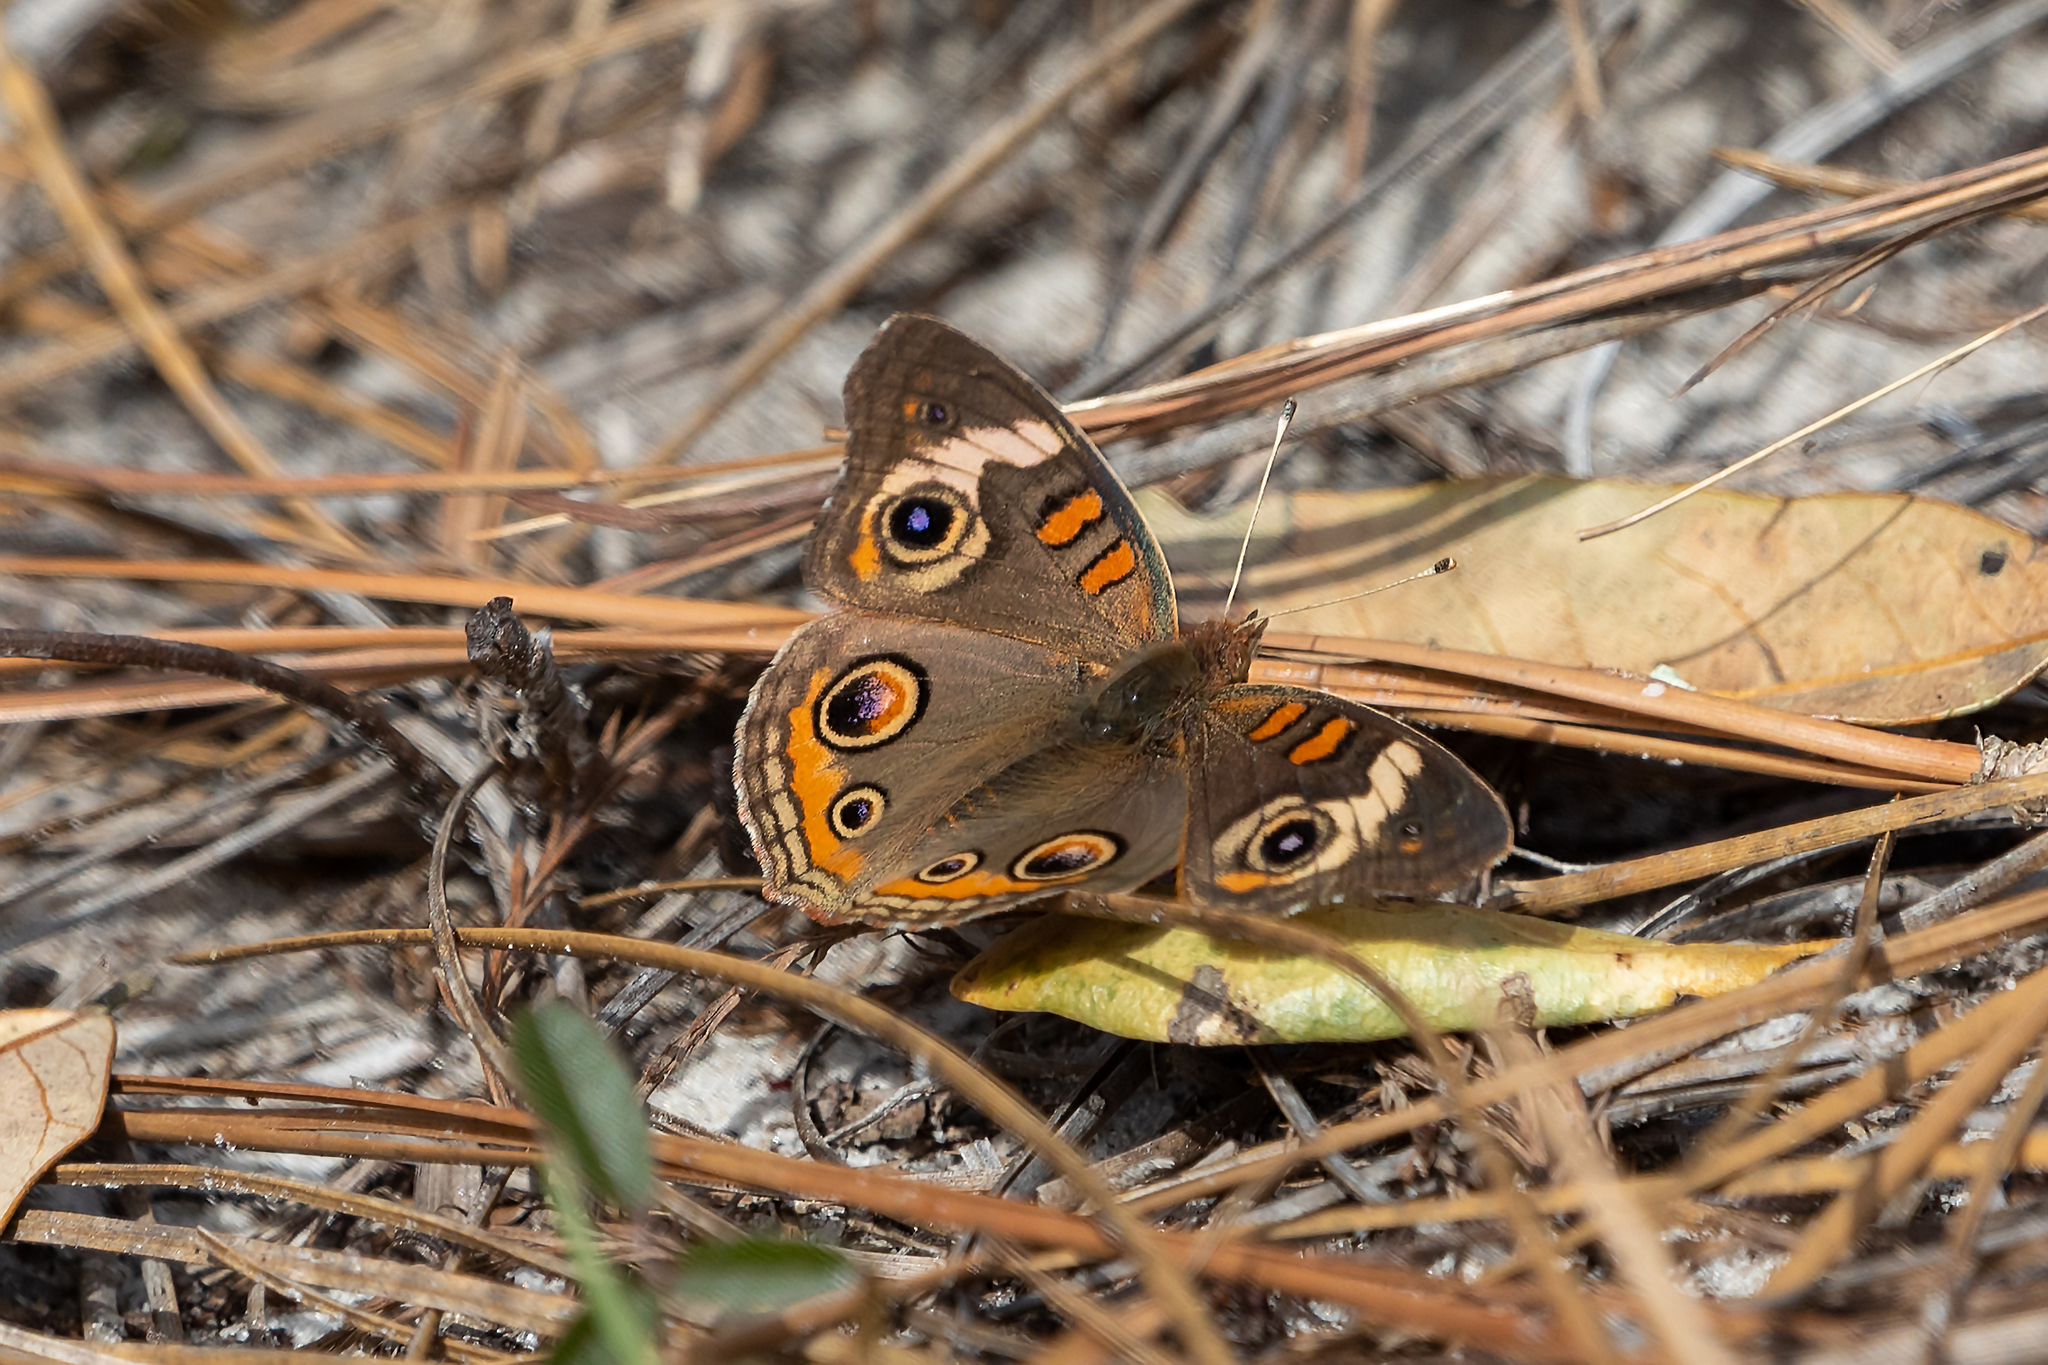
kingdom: Animalia
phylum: Arthropoda
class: Insecta
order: Lepidoptera
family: Nymphalidae
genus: Junonia
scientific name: Junonia coenia
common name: Common buckeye
